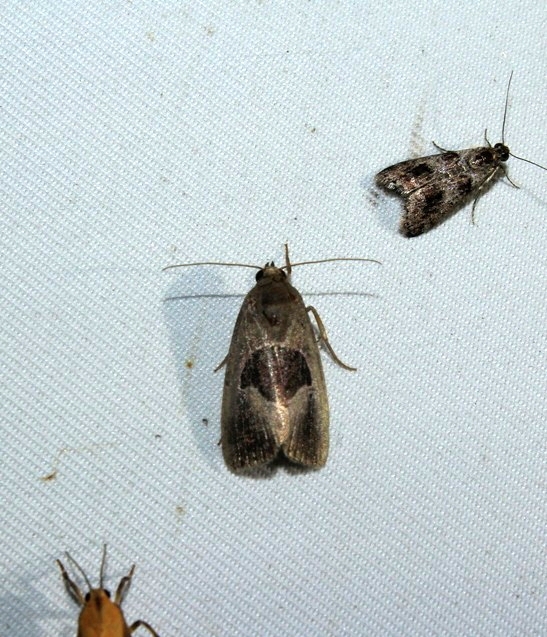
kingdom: Animalia
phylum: Arthropoda
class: Insecta
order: Lepidoptera
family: Noctuidae
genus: Elaphria
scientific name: Elaphria deltoides
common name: Cutworm moth
